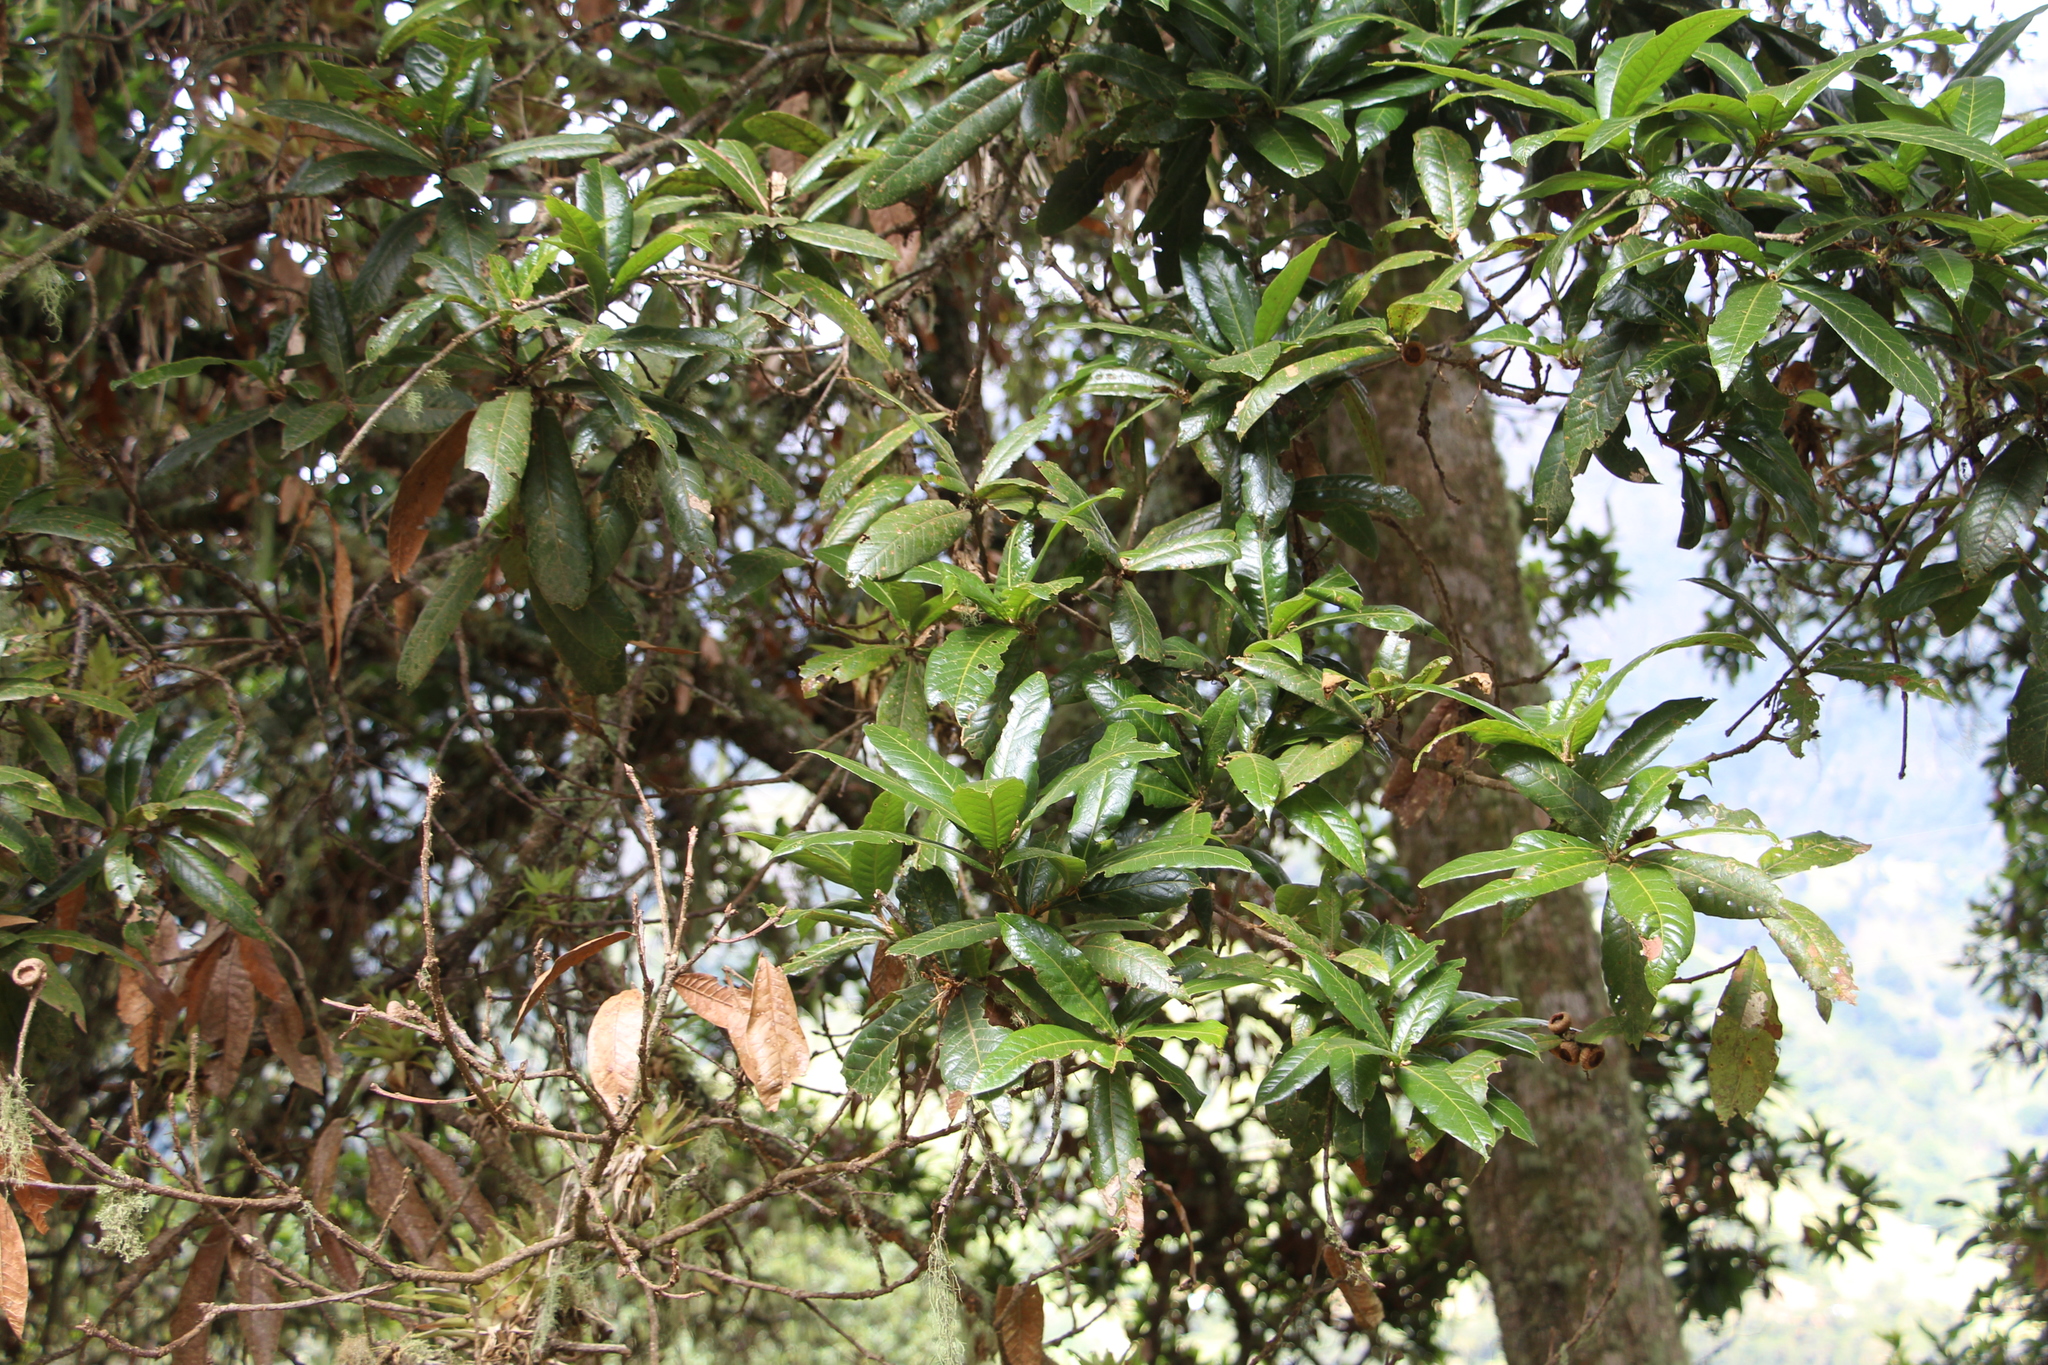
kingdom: Plantae
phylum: Tracheophyta
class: Magnoliopsida
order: Fagales
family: Fagaceae
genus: Quercus
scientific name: Quercus humboldtii
